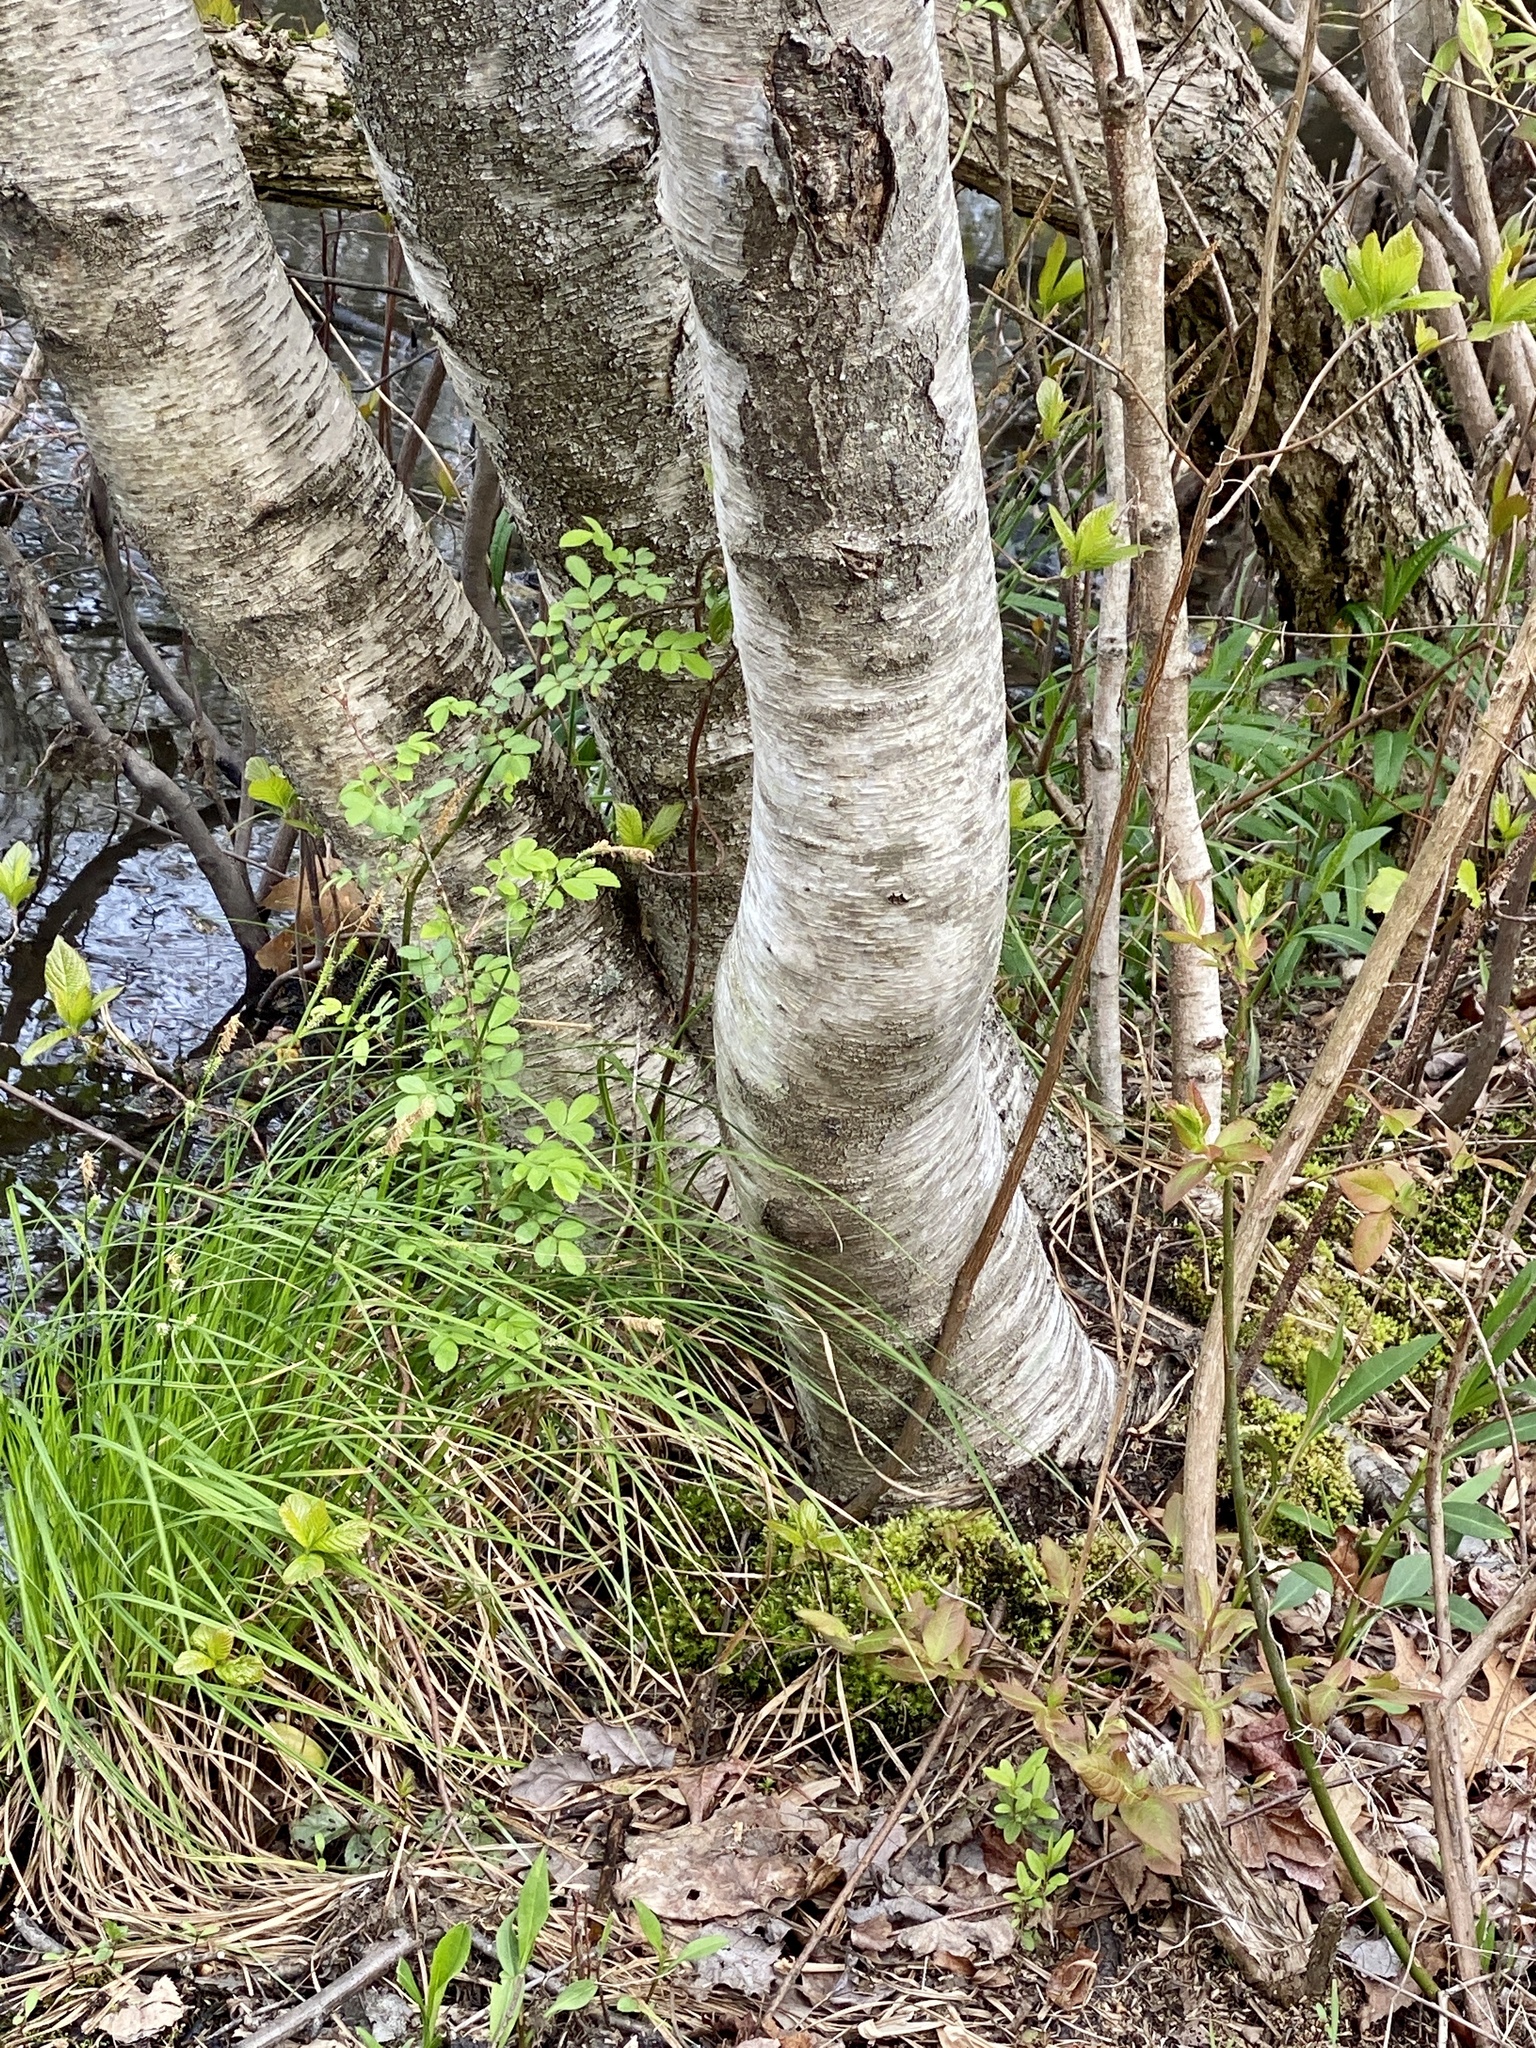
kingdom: Plantae
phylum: Tracheophyta
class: Magnoliopsida
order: Fagales
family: Betulaceae
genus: Betula
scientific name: Betula populifolia
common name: Fire birch
